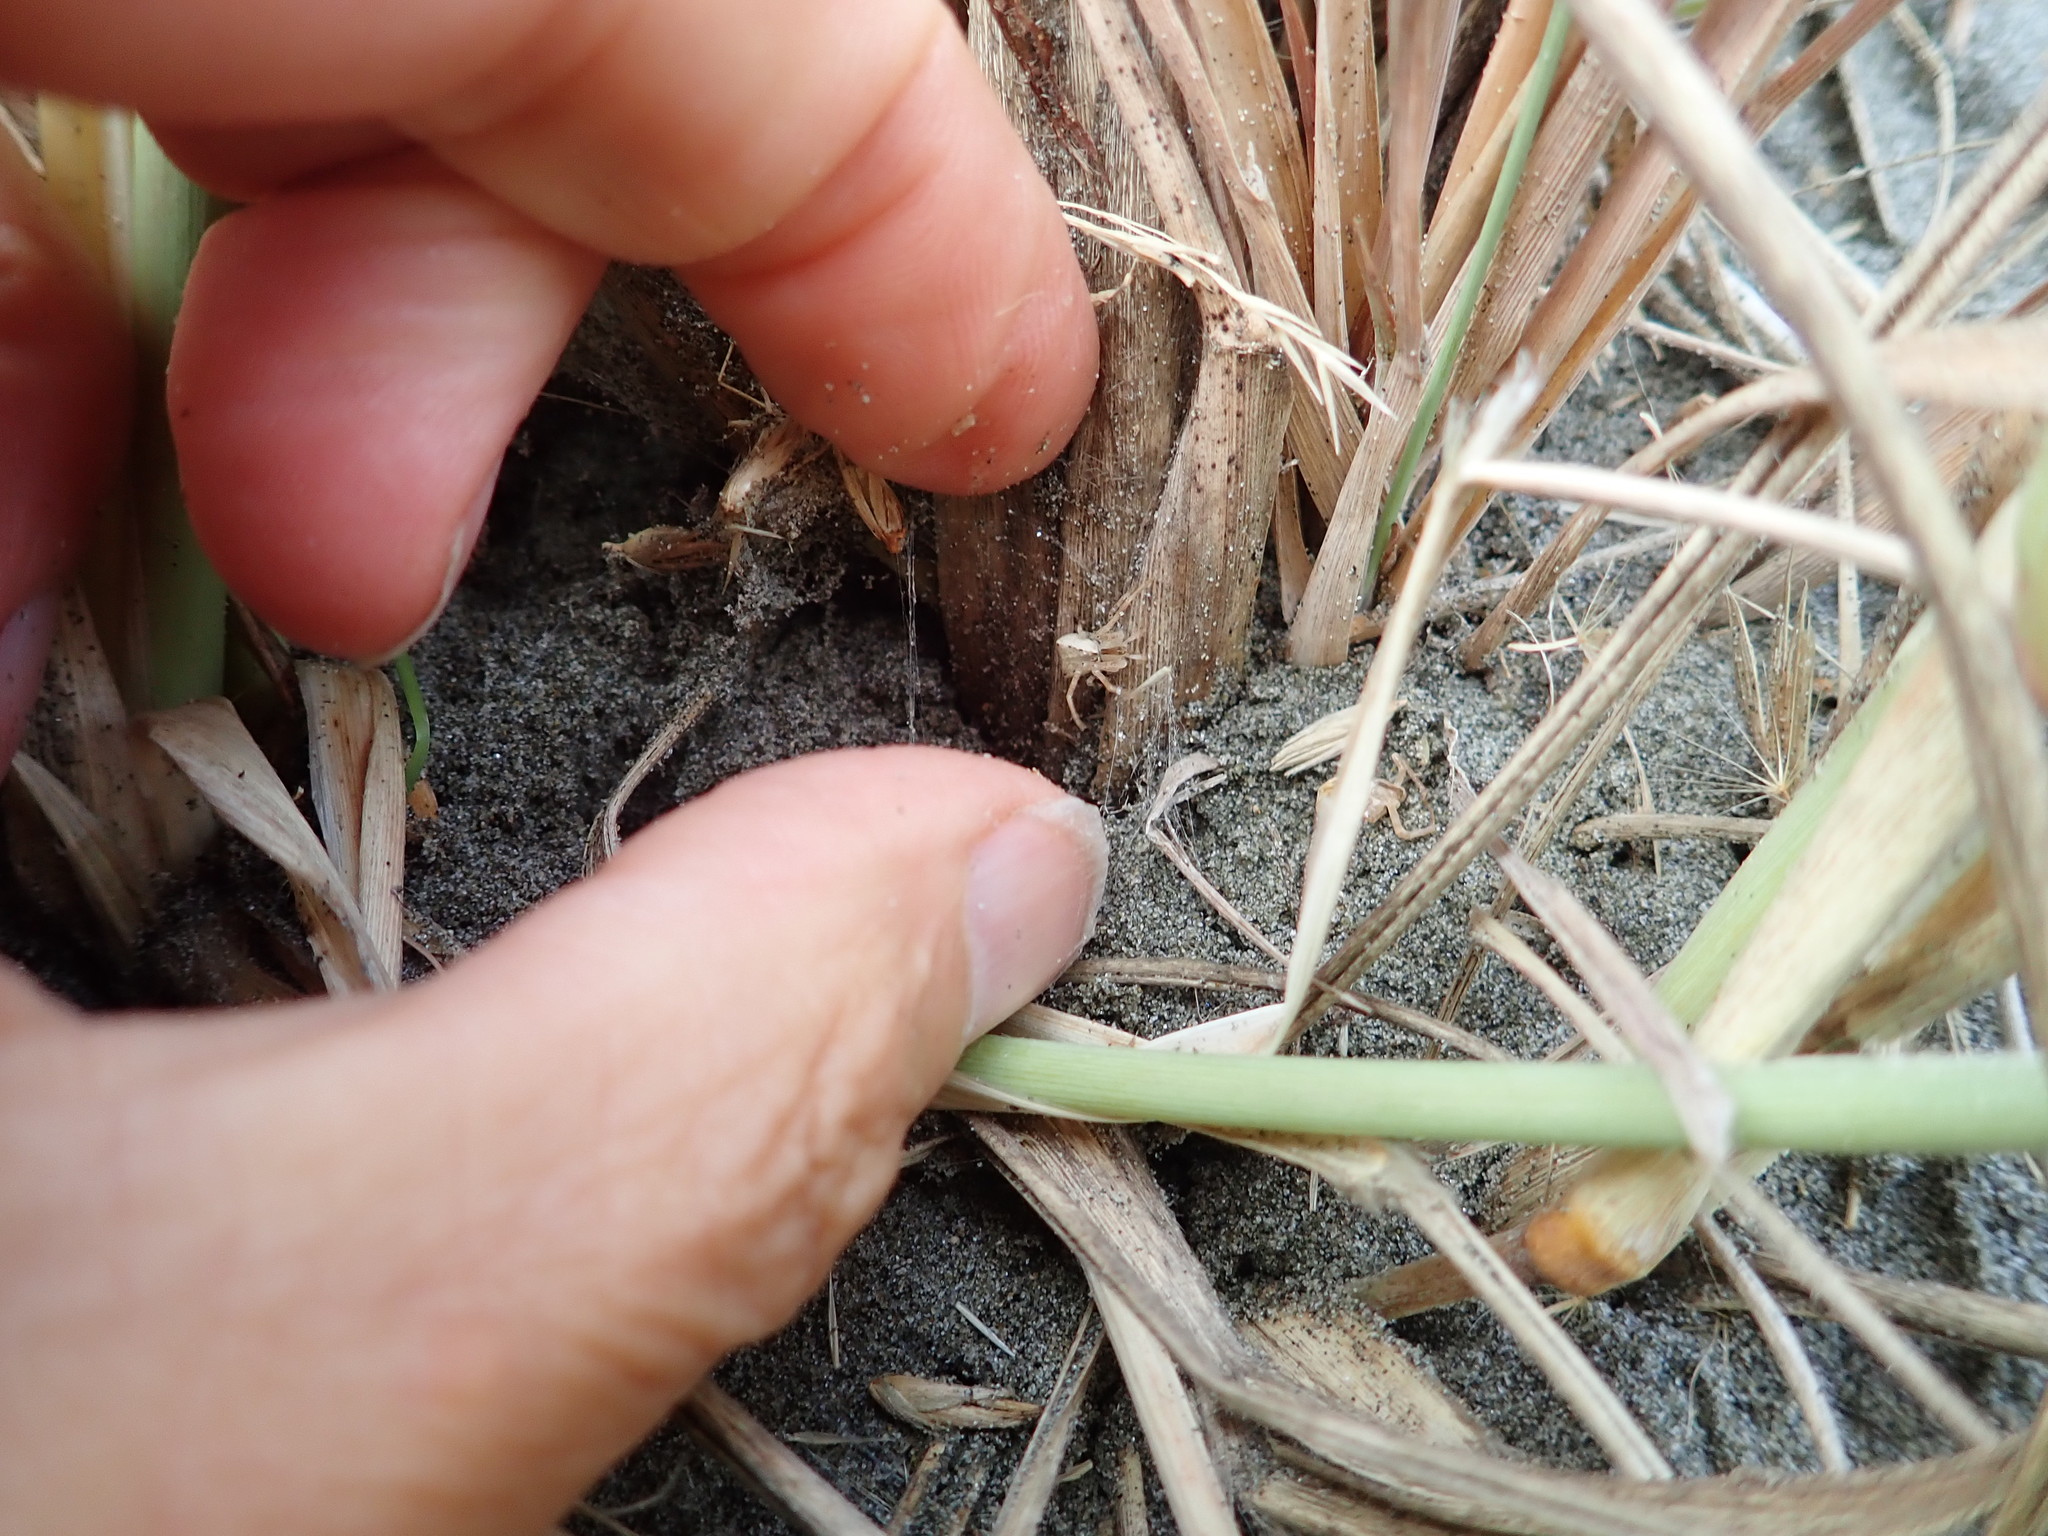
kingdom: Animalia
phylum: Arthropoda
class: Arachnida
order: Araneae
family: Thomisidae
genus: Sidymella
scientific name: Sidymella trapezia
